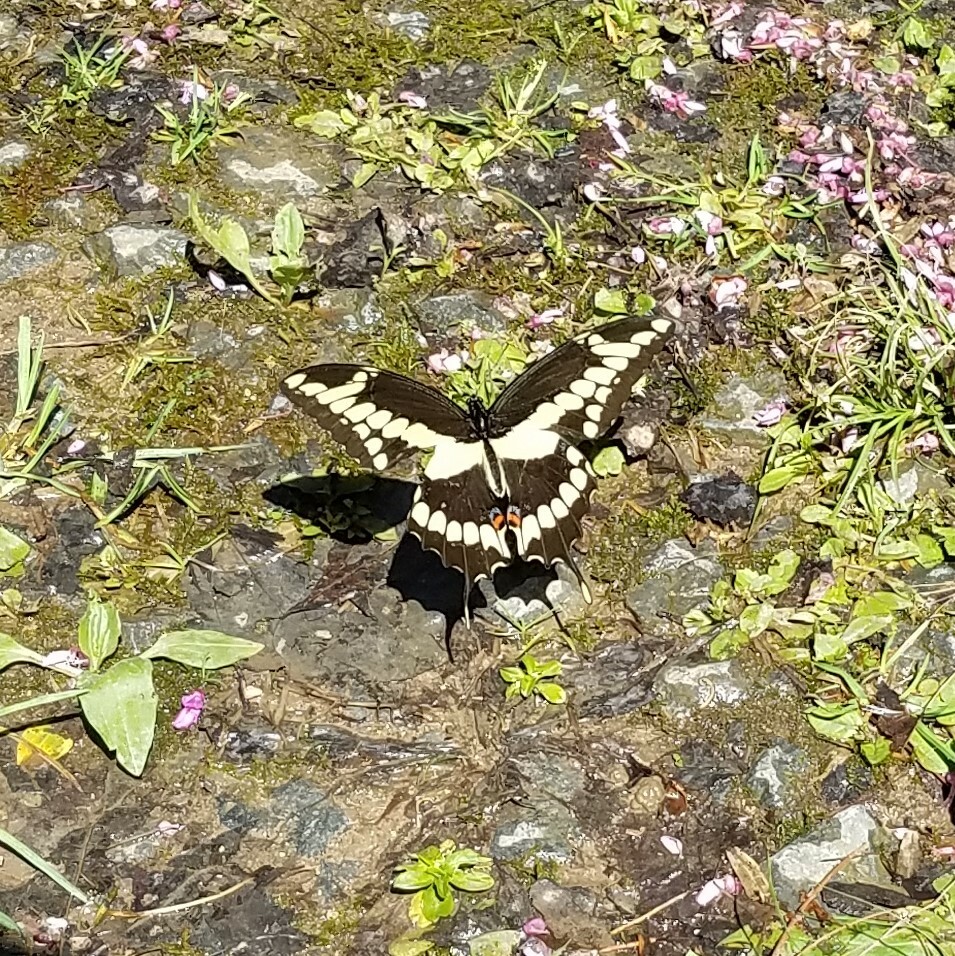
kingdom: Animalia
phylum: Arthropoda
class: Insecta
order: Lepidoptera
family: Papilionidae
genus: Papilio
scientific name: Papilio cresphontes
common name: Giant swallowtail
